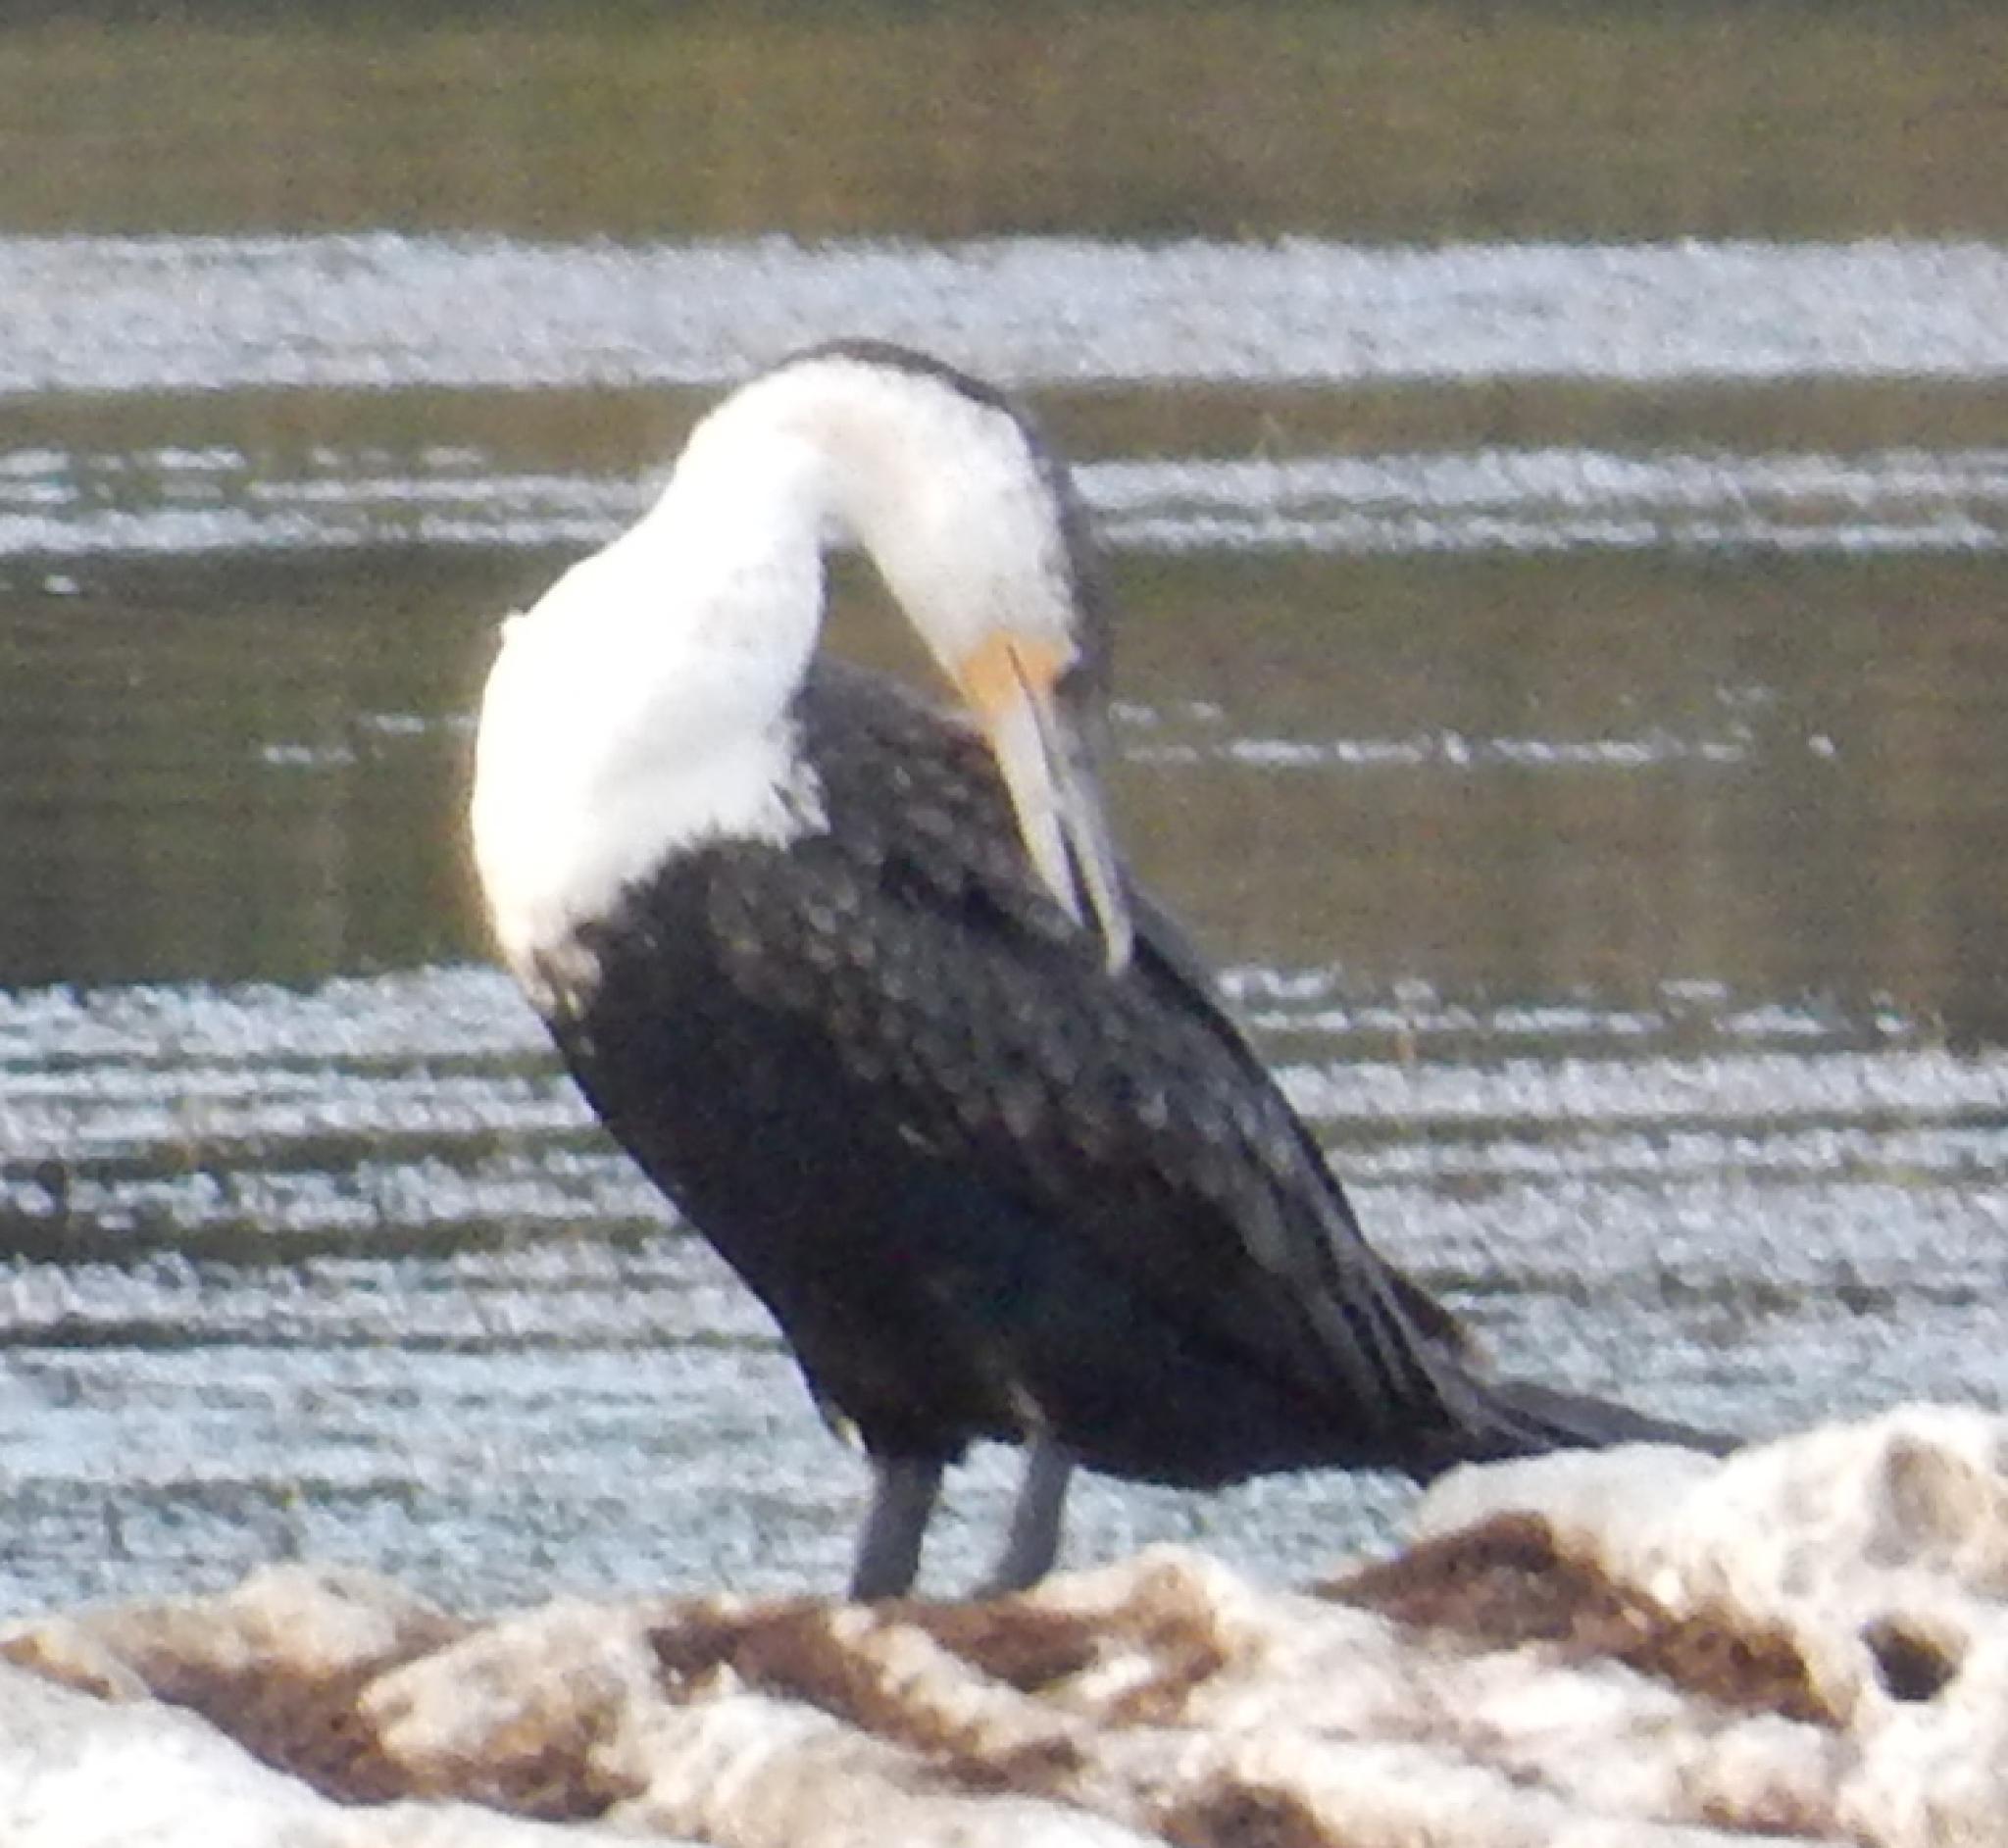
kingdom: Animalia
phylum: Chordata
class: Aves
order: Suliformes
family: Phalacrocoracidae
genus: Phalacrocorax
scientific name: Phalacrocorax carbo
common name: Great cormorant
